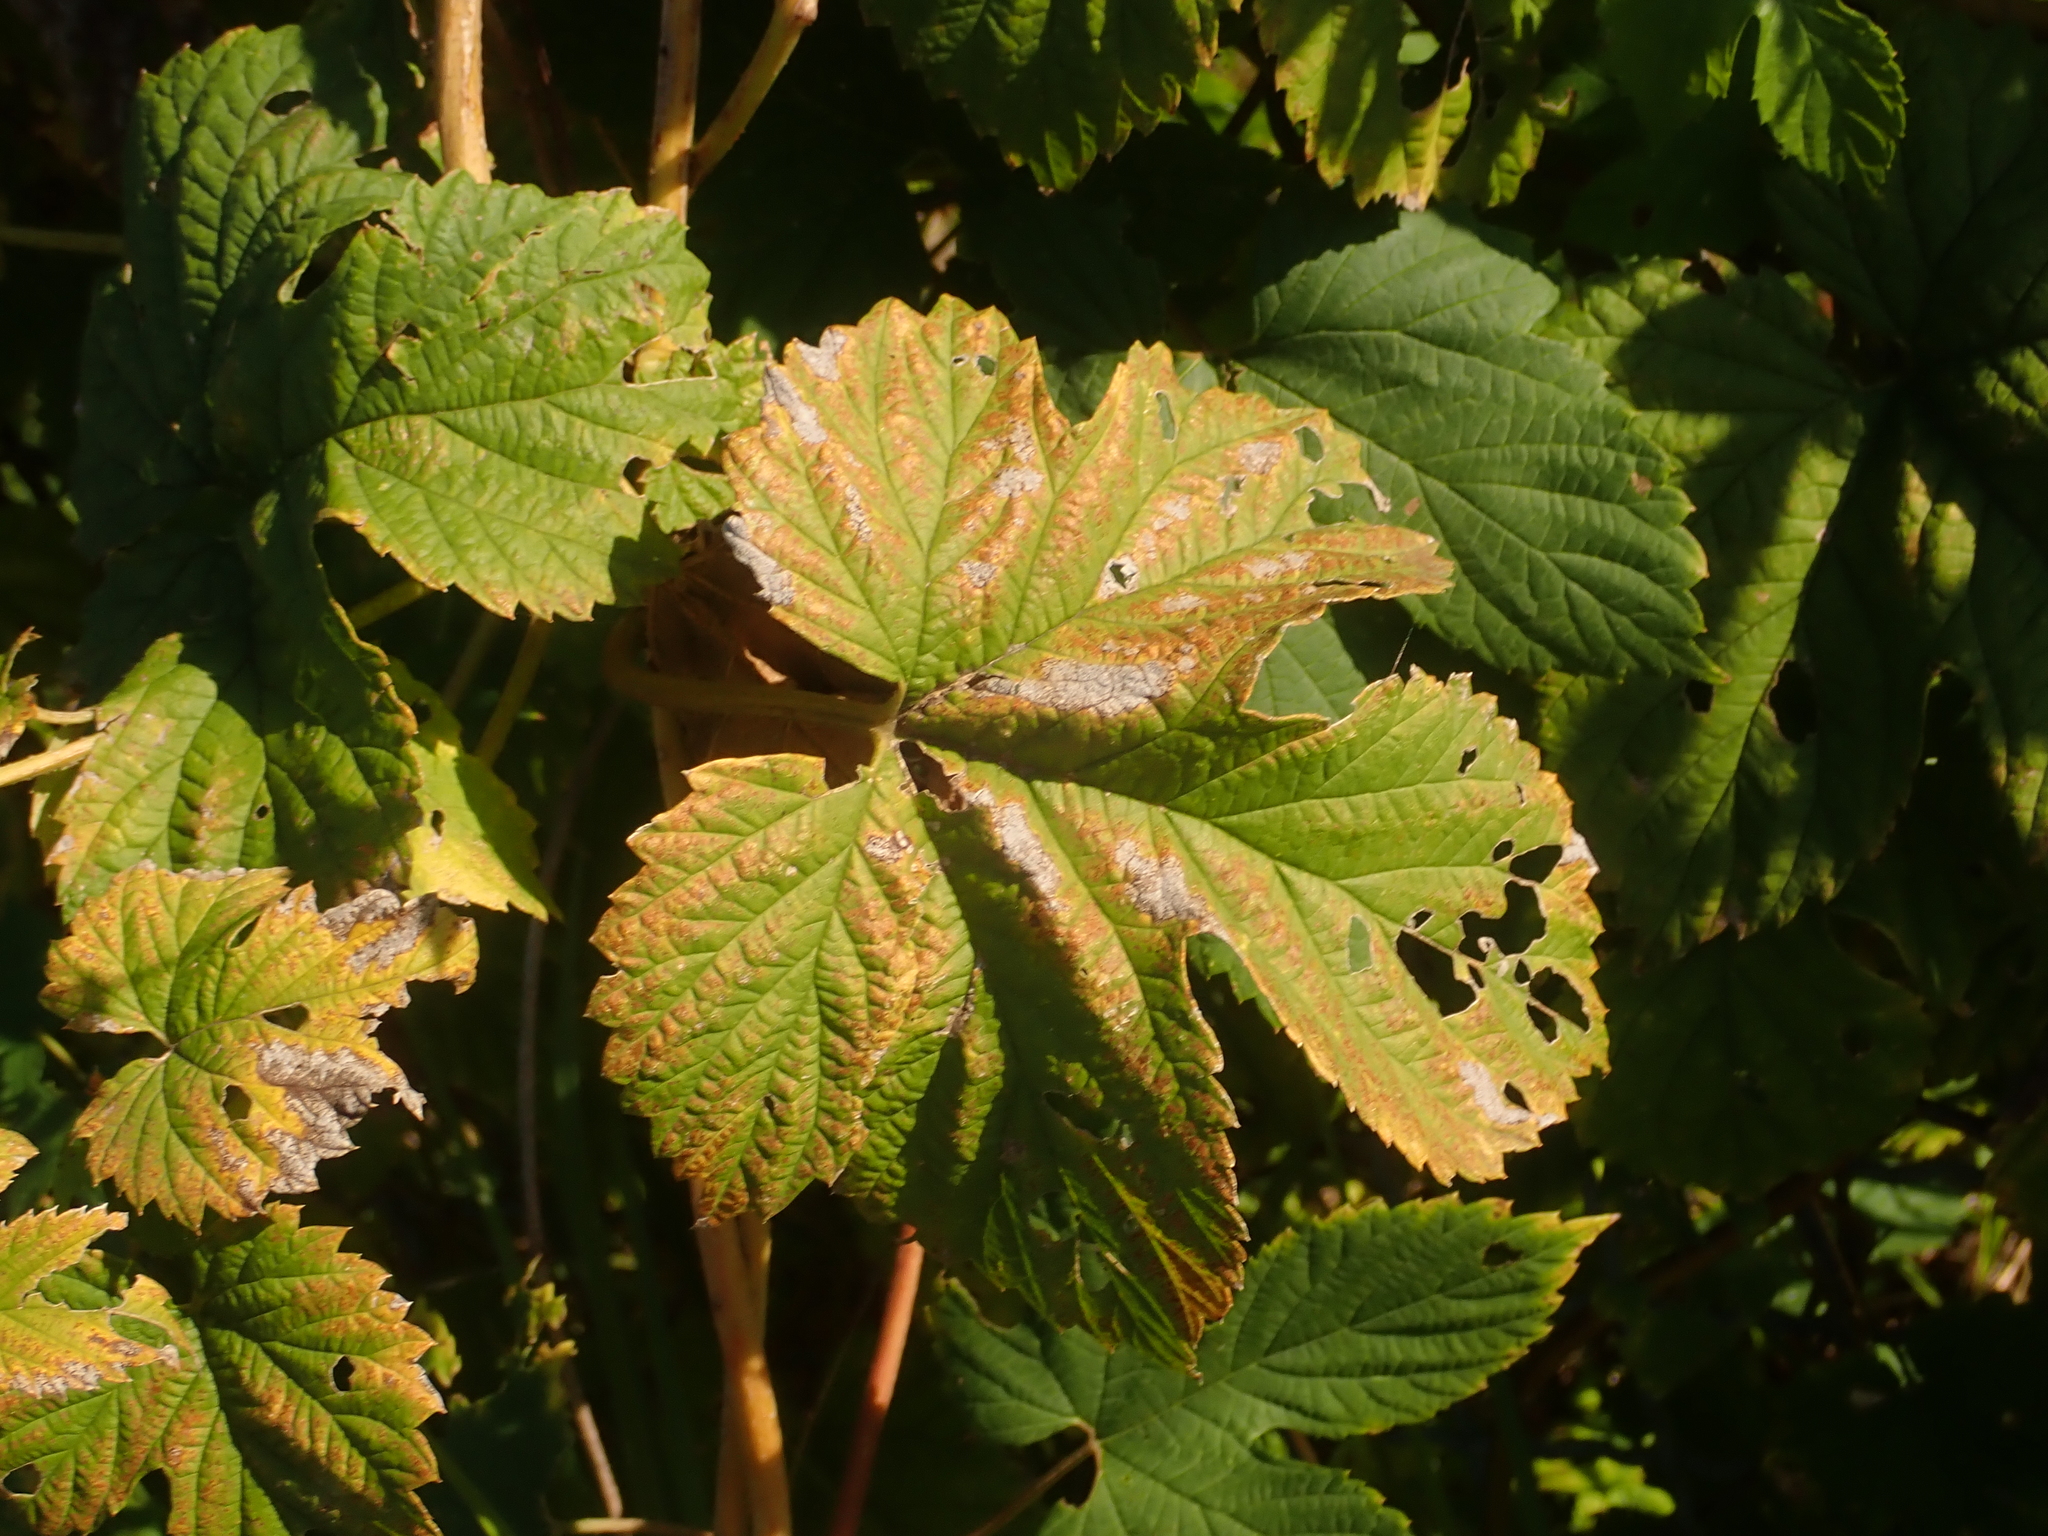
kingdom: Plantae
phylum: Tracheophyta
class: Magnoliopsida
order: Rosales
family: Cannabaceae
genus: Humulus
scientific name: Humulus lupulus
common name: Hop
